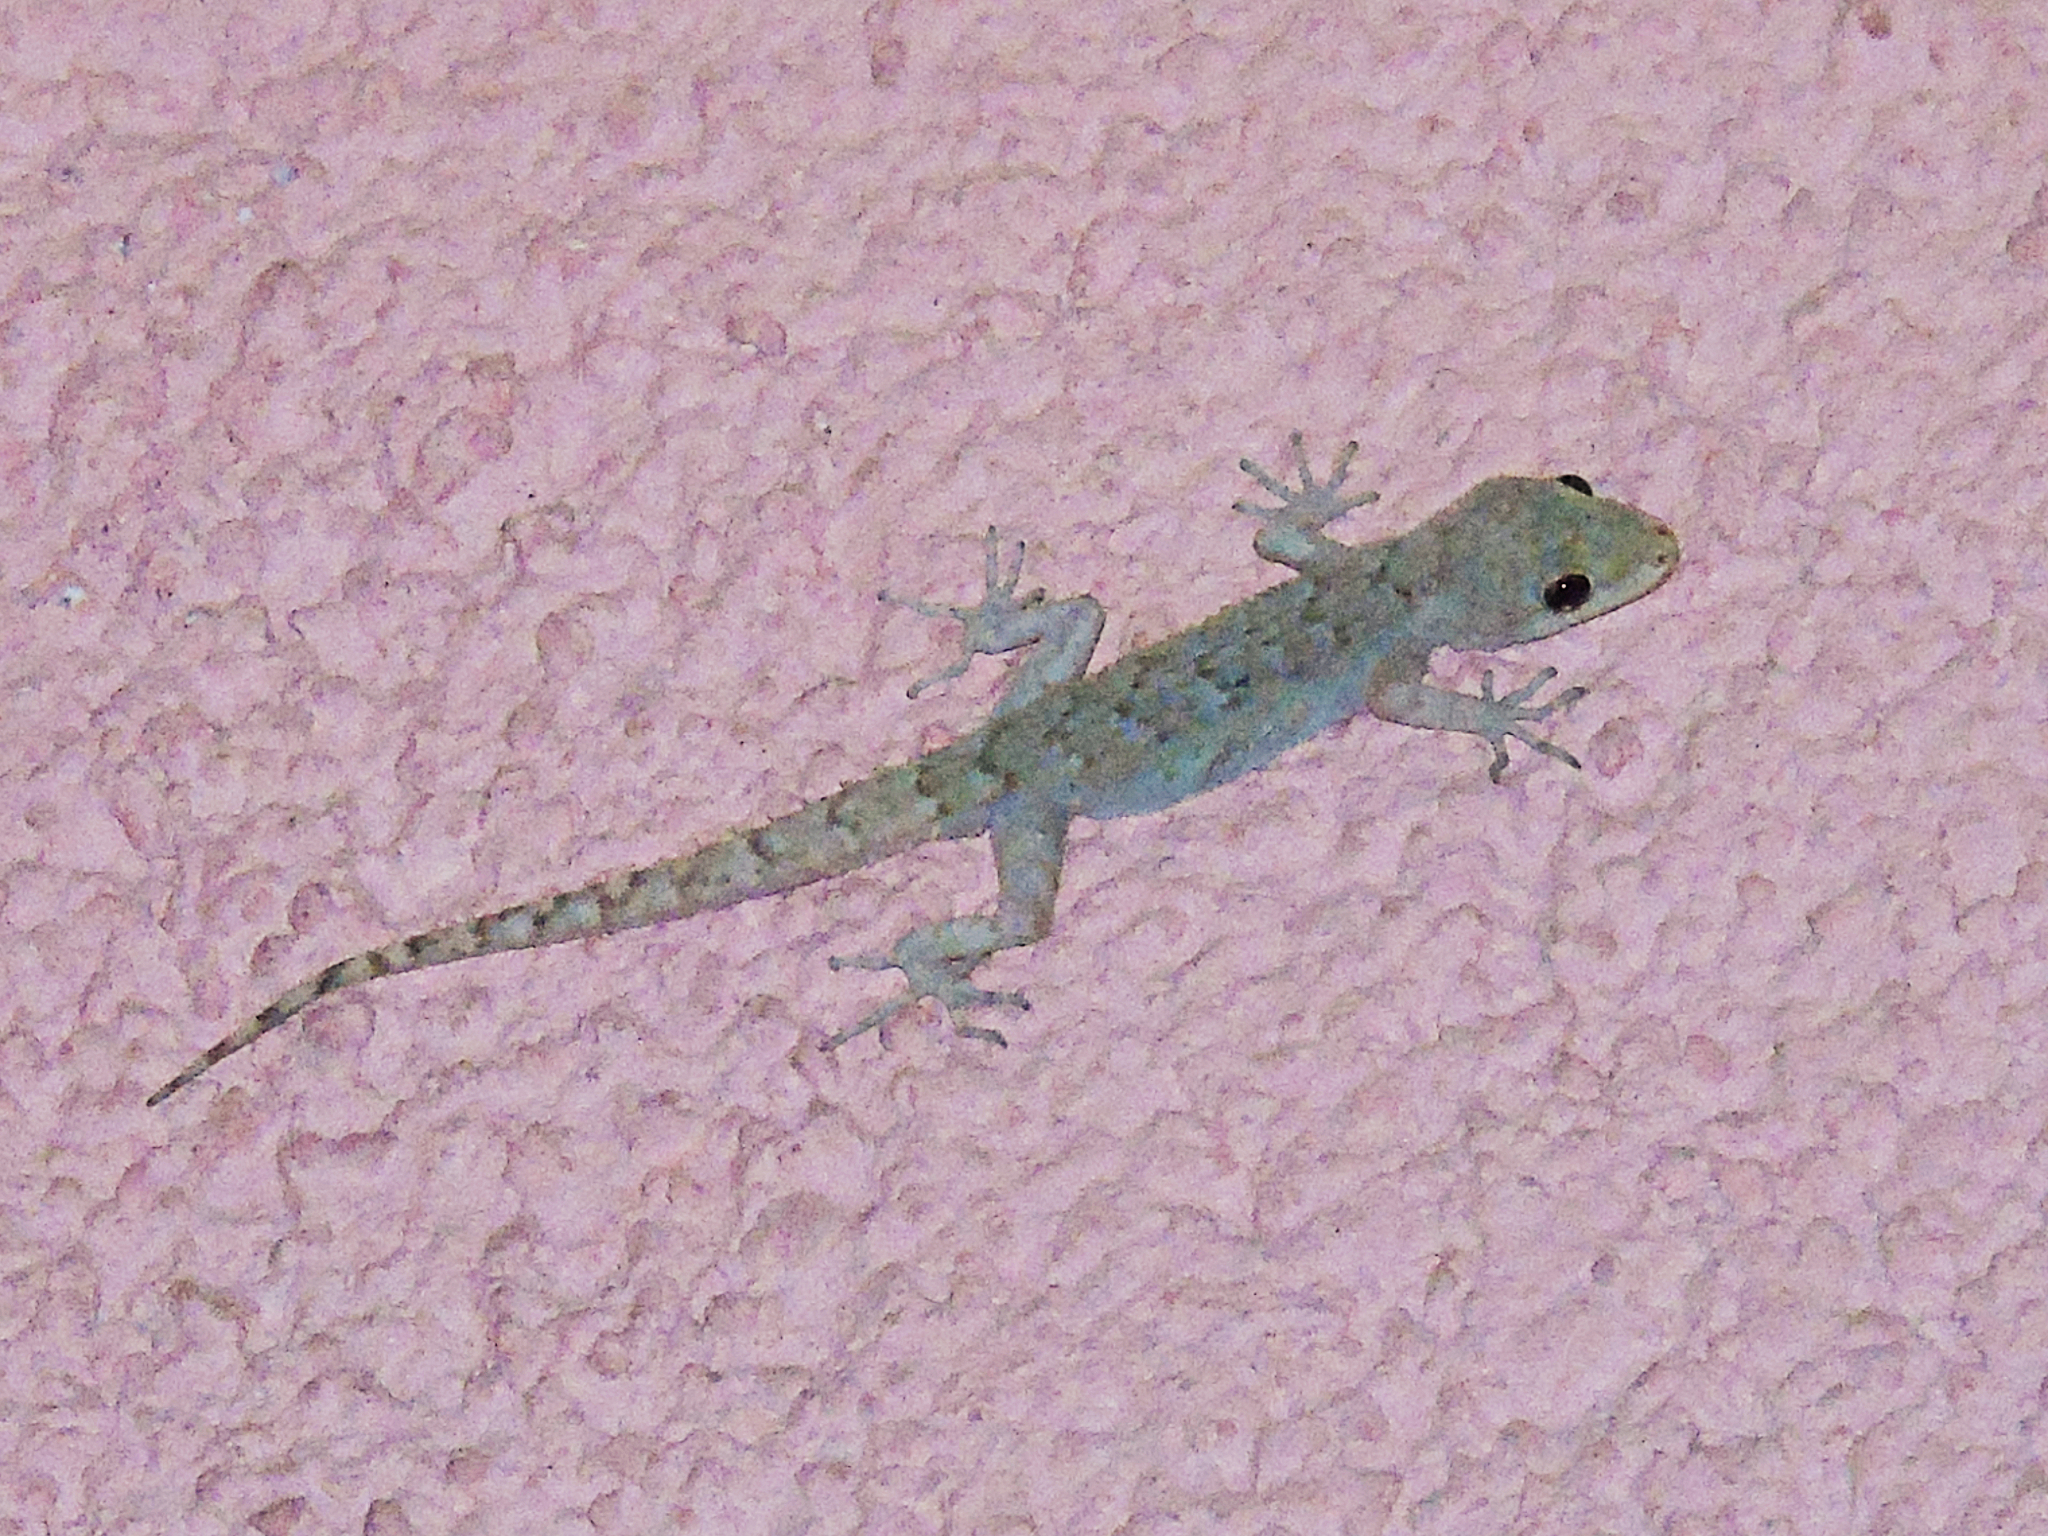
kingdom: Animalia
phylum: Chordata
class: Squamata
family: Gekkonidae
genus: Mediodactylus
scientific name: Mediodactylus kotschyi
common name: Kotschy's gecko
